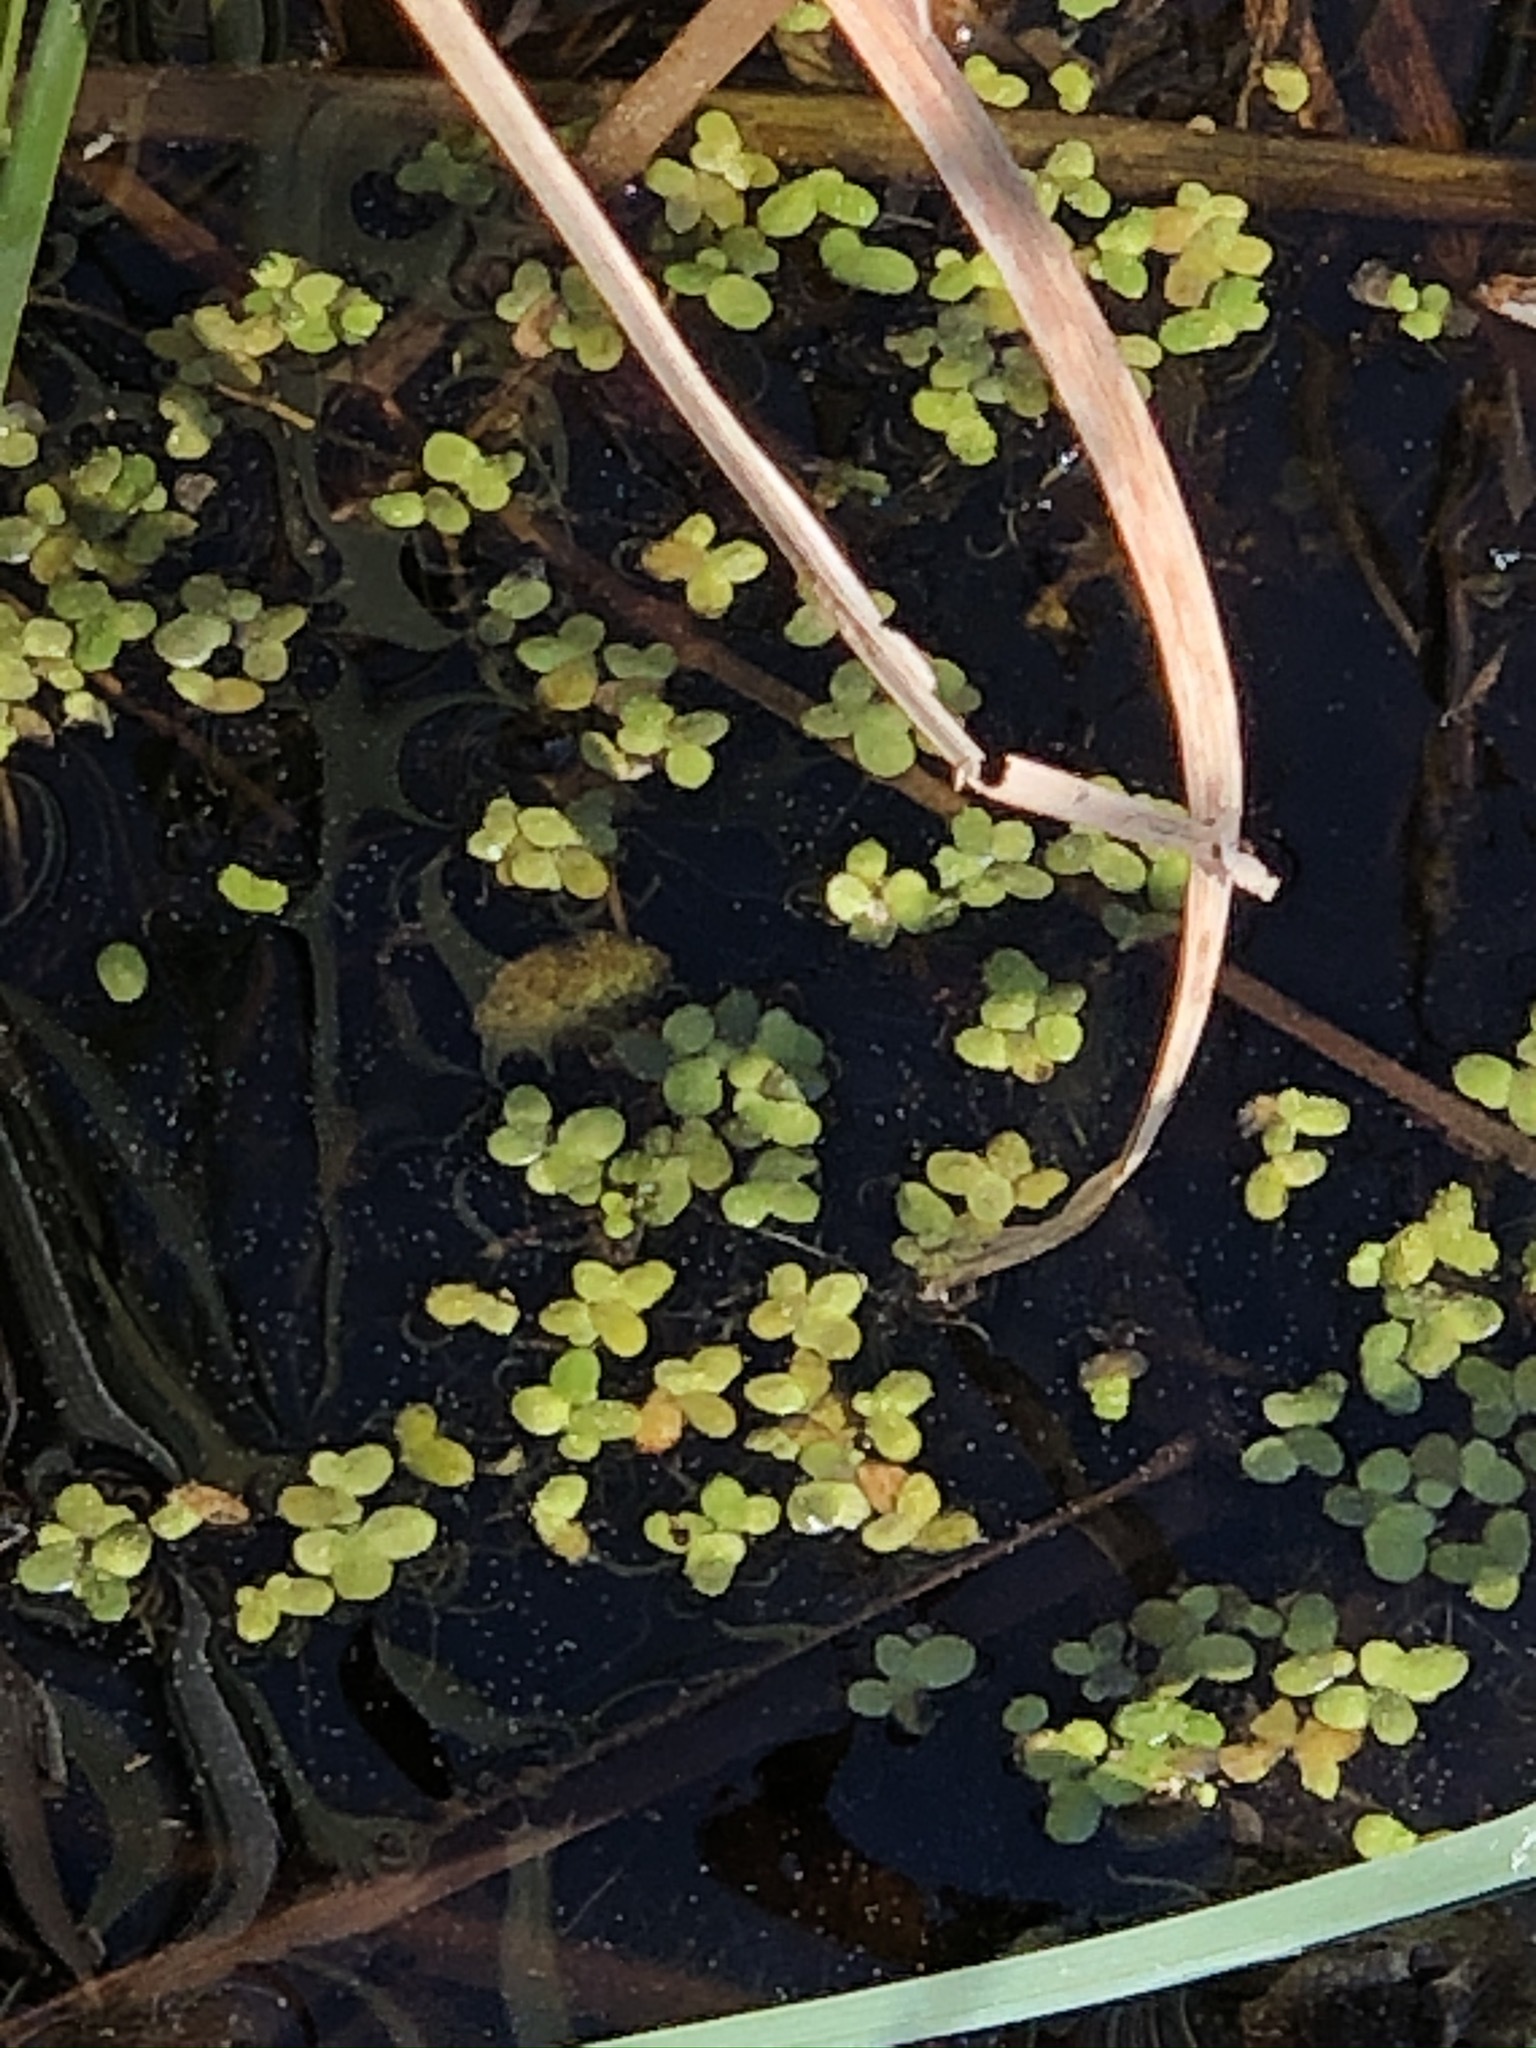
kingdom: Plantae
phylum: Tracheophyta
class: Liliopsida
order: Alismatales
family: Araceae
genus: Lemna
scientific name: Lemna minor
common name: Common duckweed
